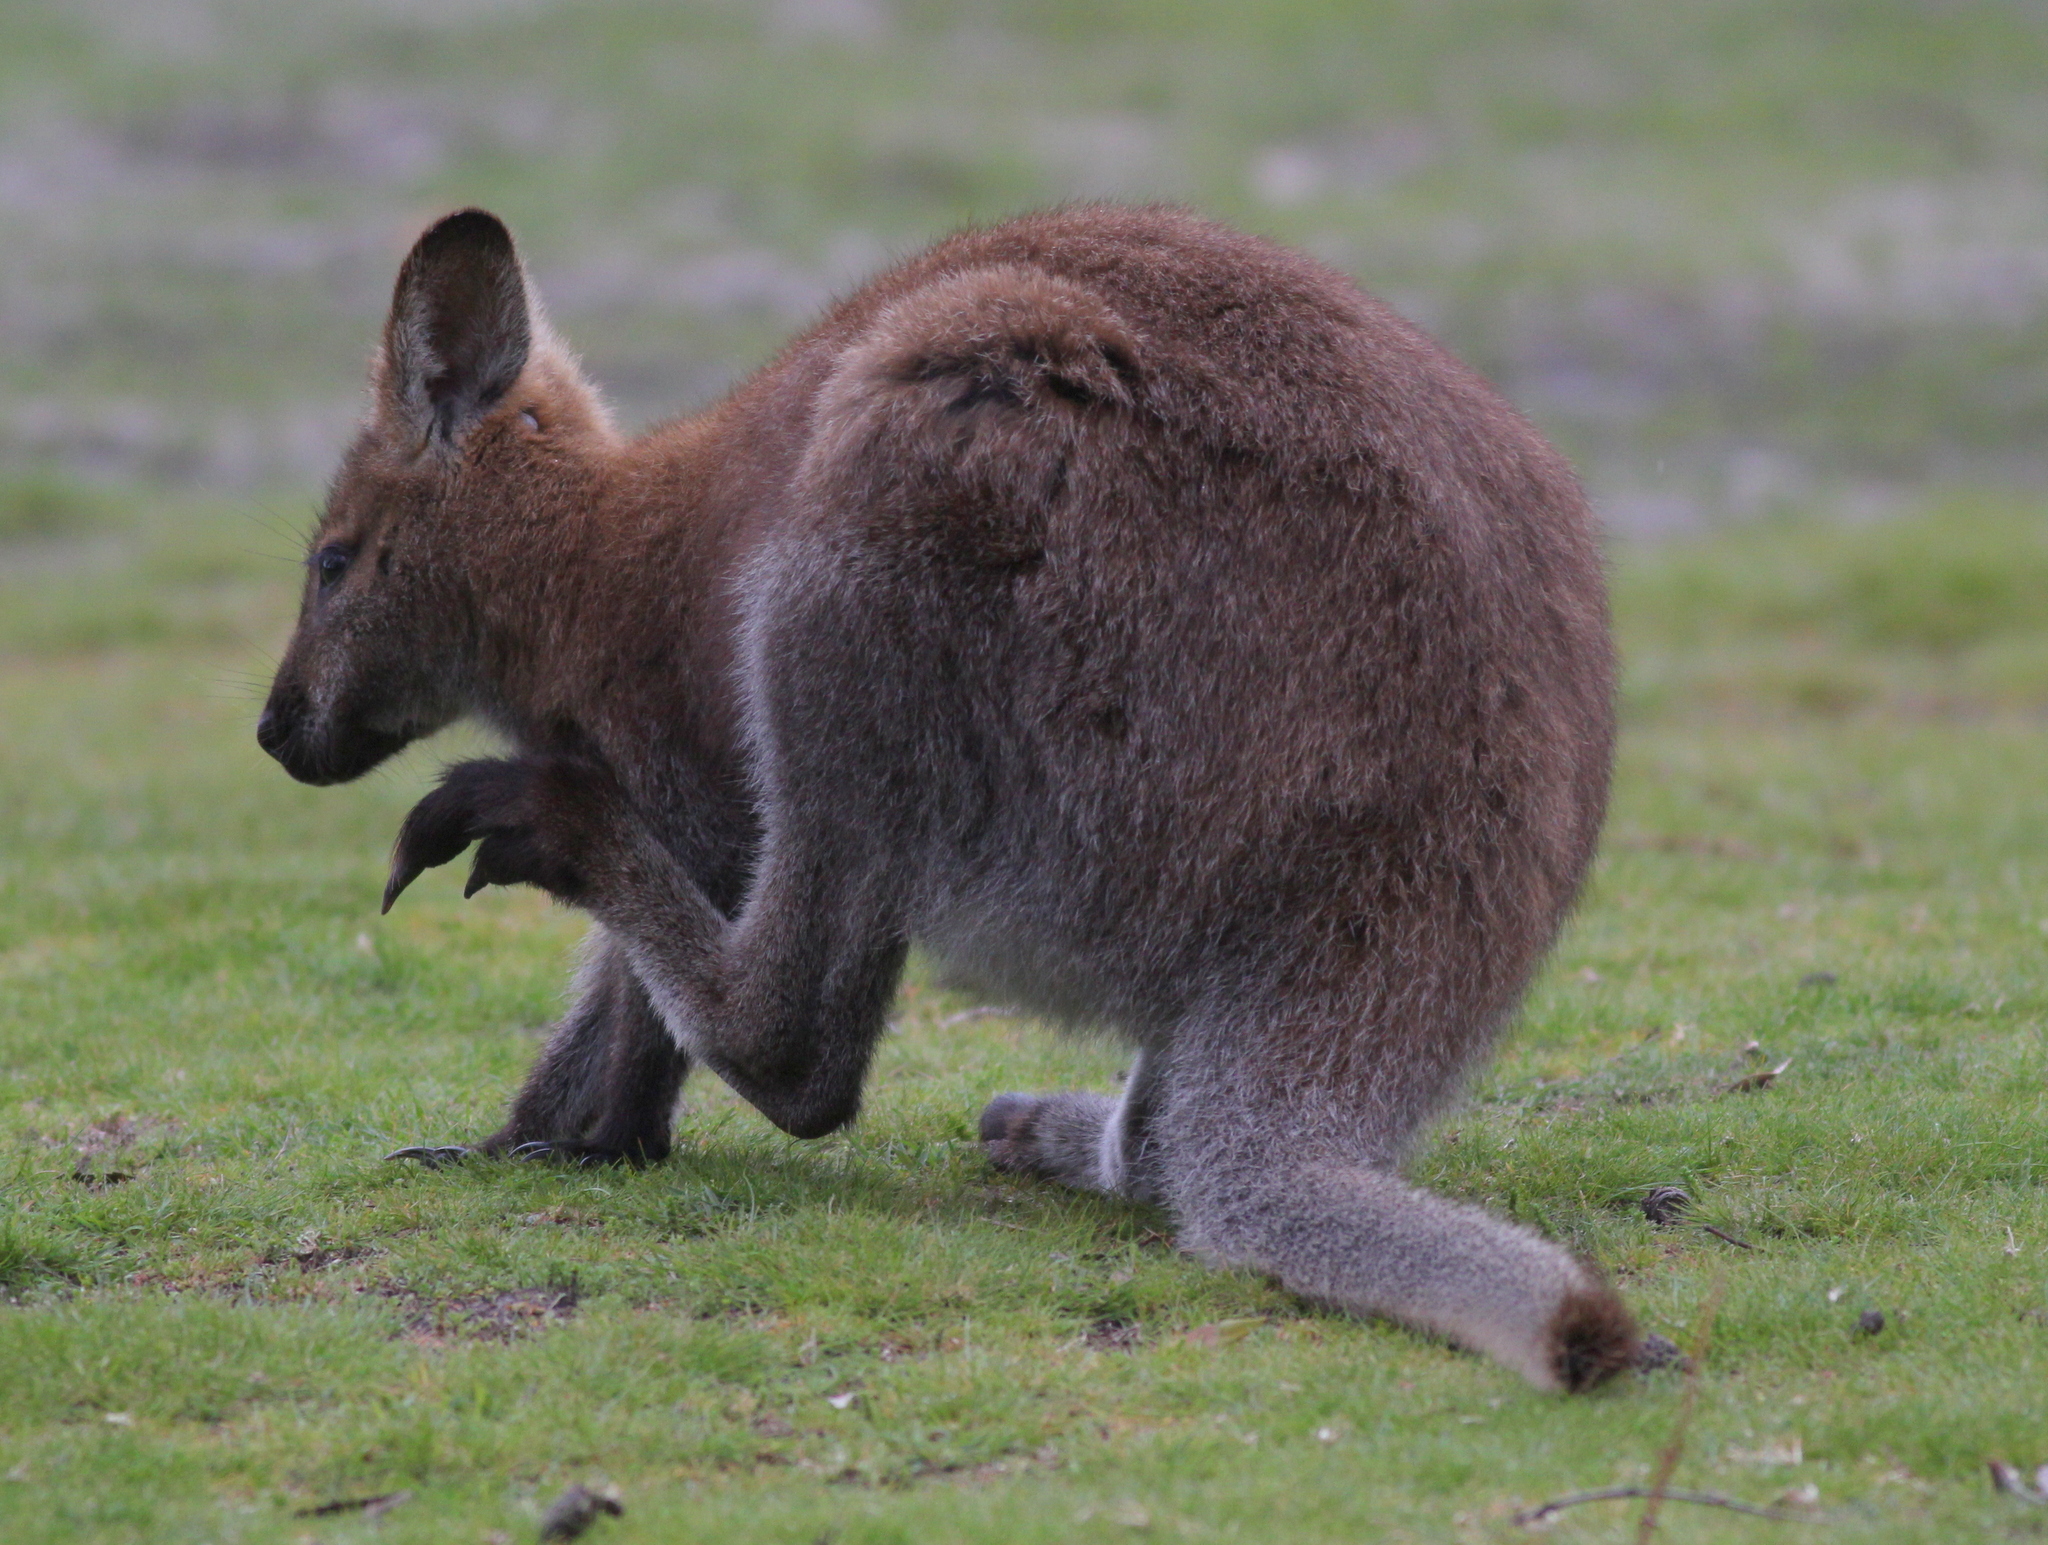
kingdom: Animalia
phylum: Chordata
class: Mammalia
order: Diprotodontia
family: Macropodidae
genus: Notamacropus
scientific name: Notamacropus rufogriseus
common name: Red-necked wallaby
